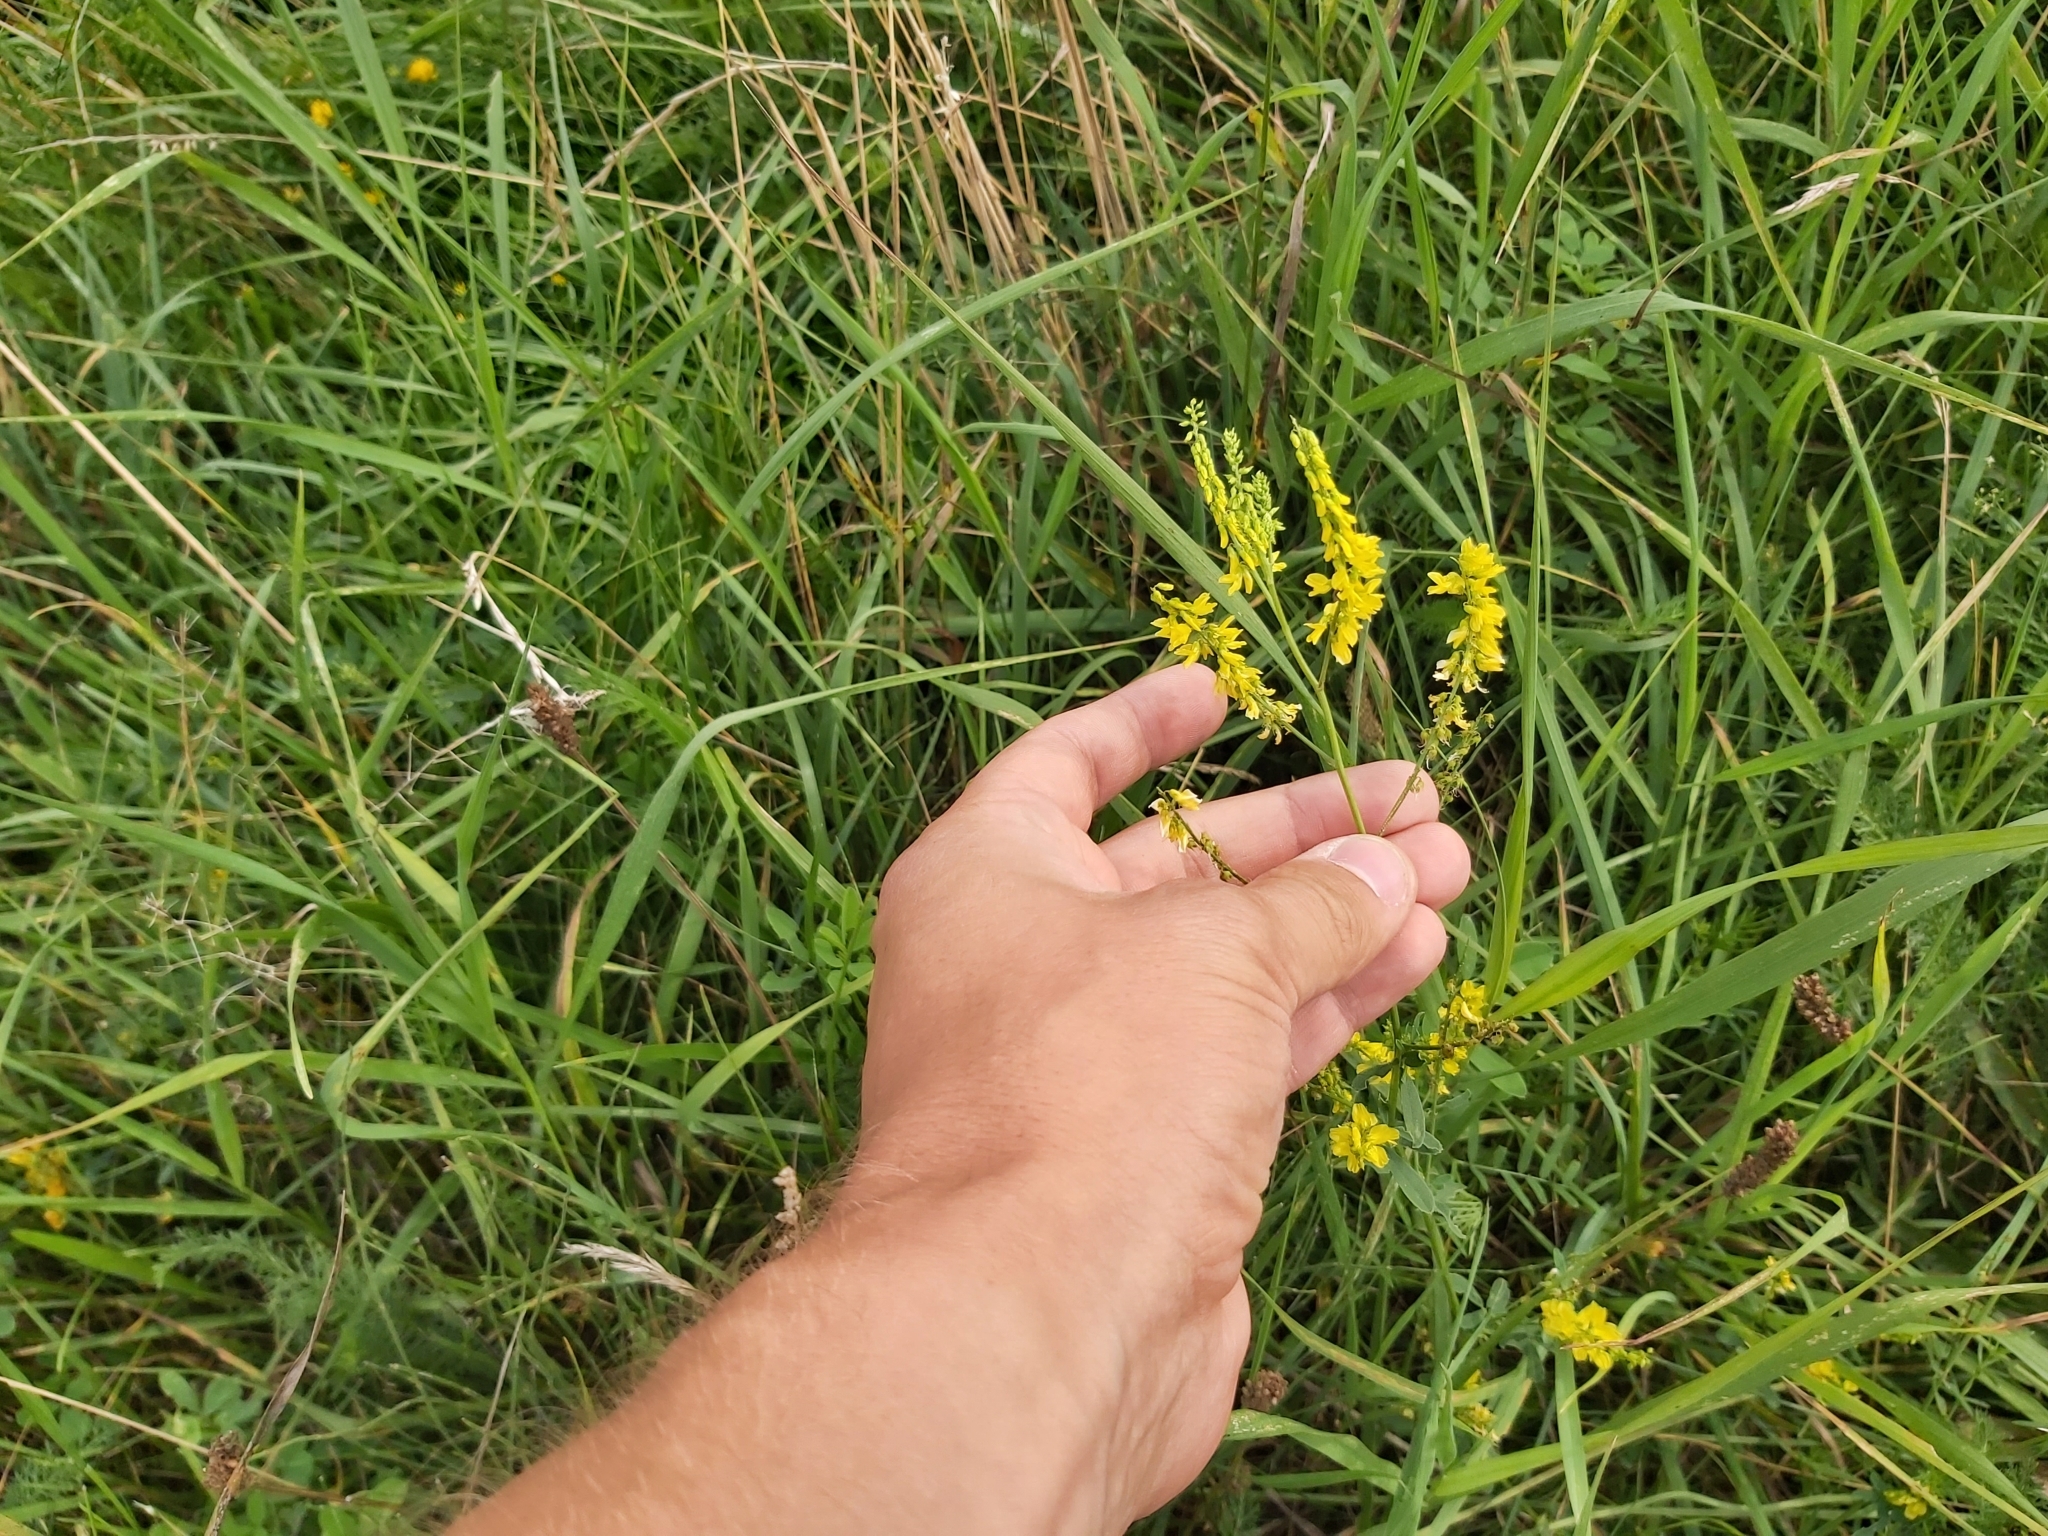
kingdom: Plantae
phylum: Tracheophyta
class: Magnoliopsida
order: Fabales
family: Fabaceae
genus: Melilotus
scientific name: Melilotus officinalis
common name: Sweetclover
